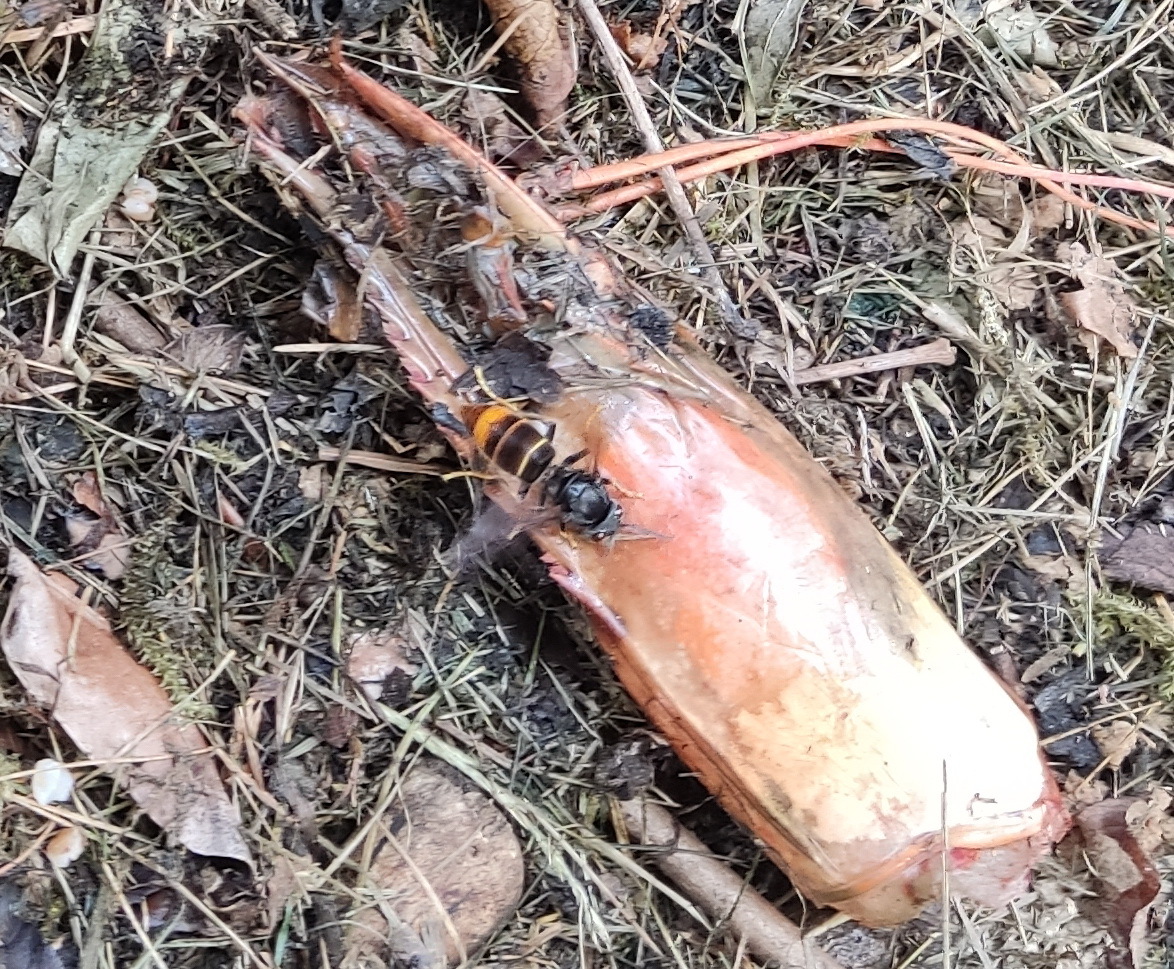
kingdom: Animalia
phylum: Arthropoda
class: Insecta
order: Hymenoptera
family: Vespidae
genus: Vespa
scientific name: Vespa velutina
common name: Asian hornet
